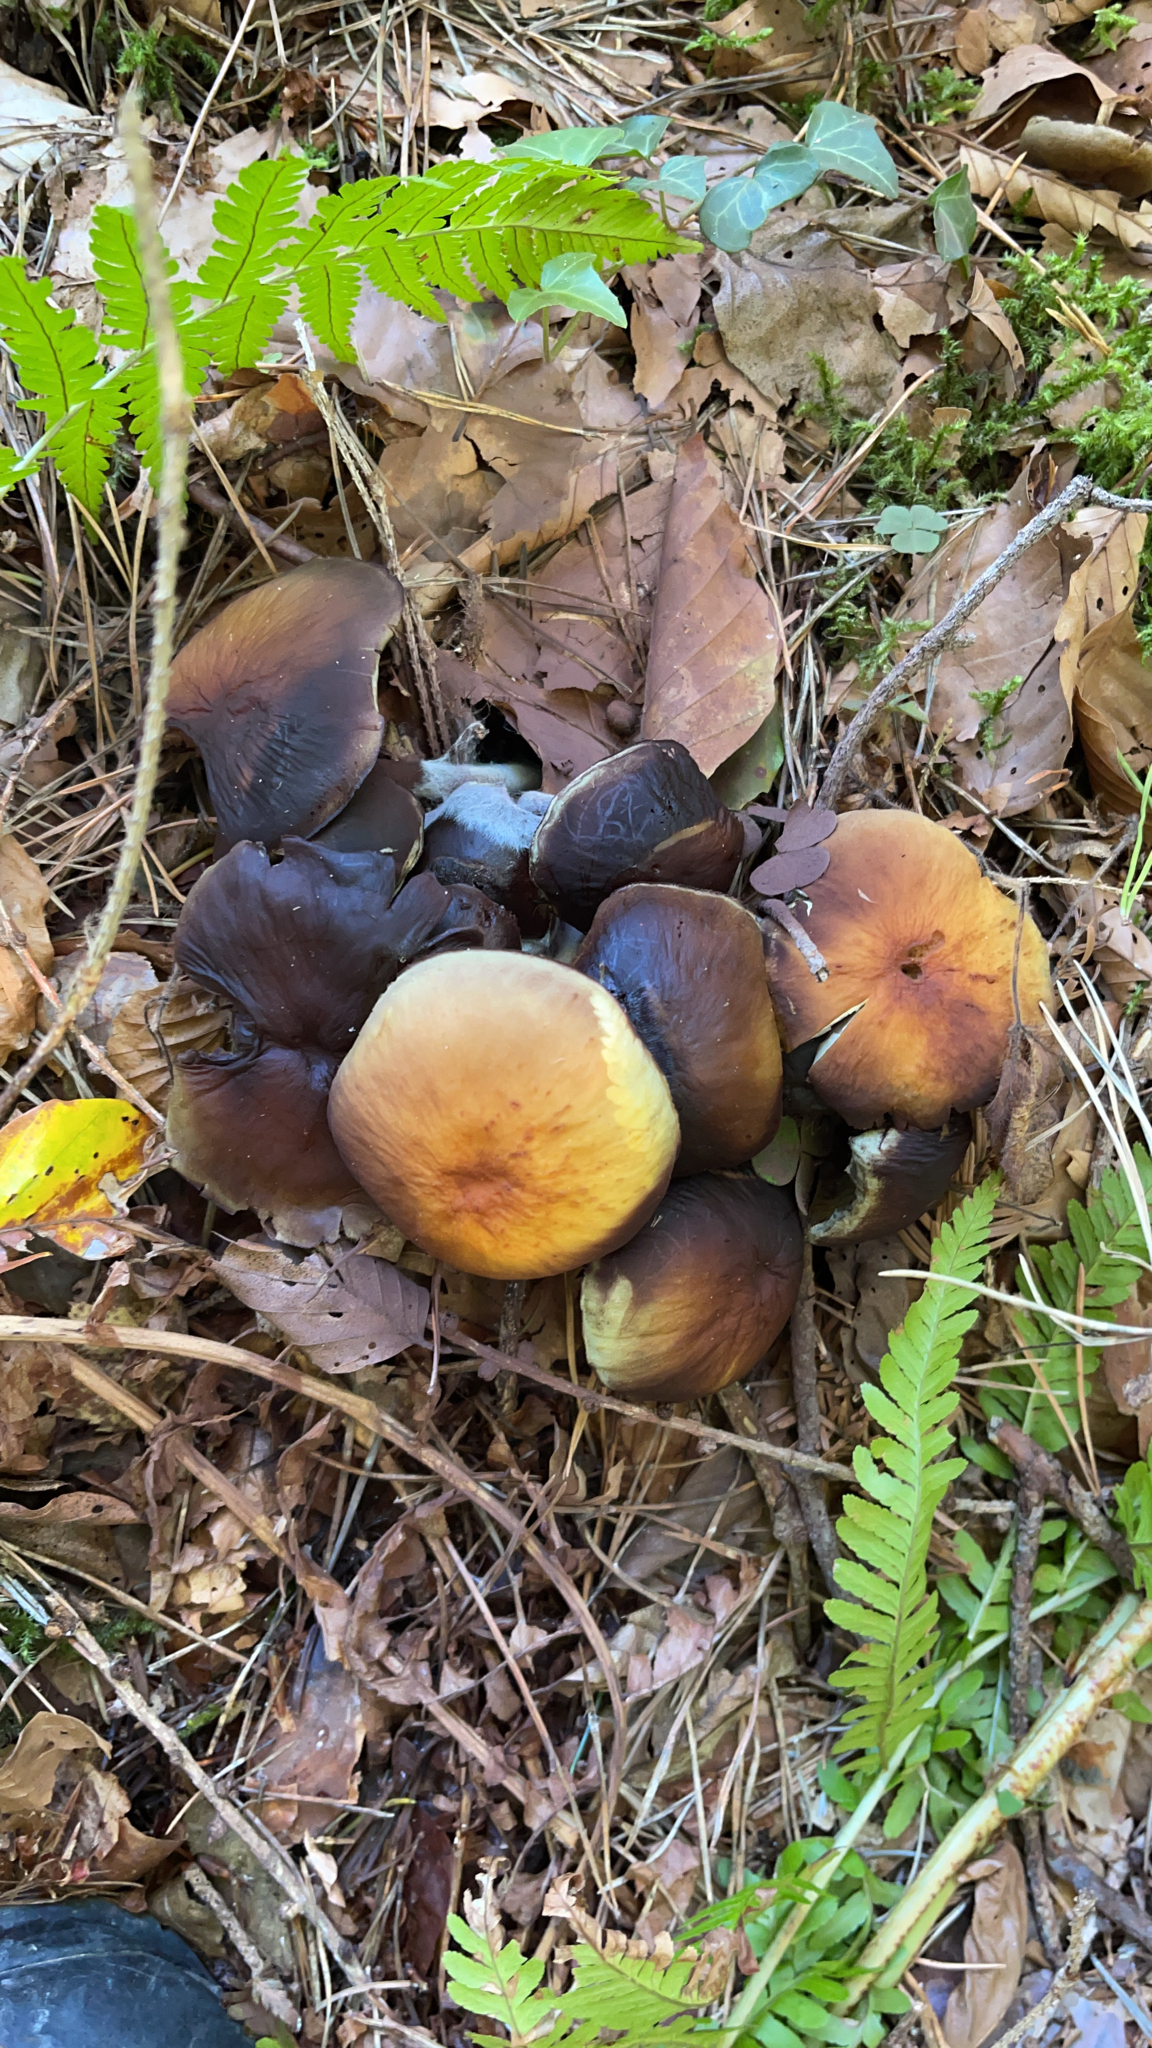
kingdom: Fungi
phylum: Basidiomycota
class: Agaricomycetes
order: Agaricales
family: Strophariaceae
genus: Hypholoma
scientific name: Hypholoma fasciculare
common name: Sulphur tuft
